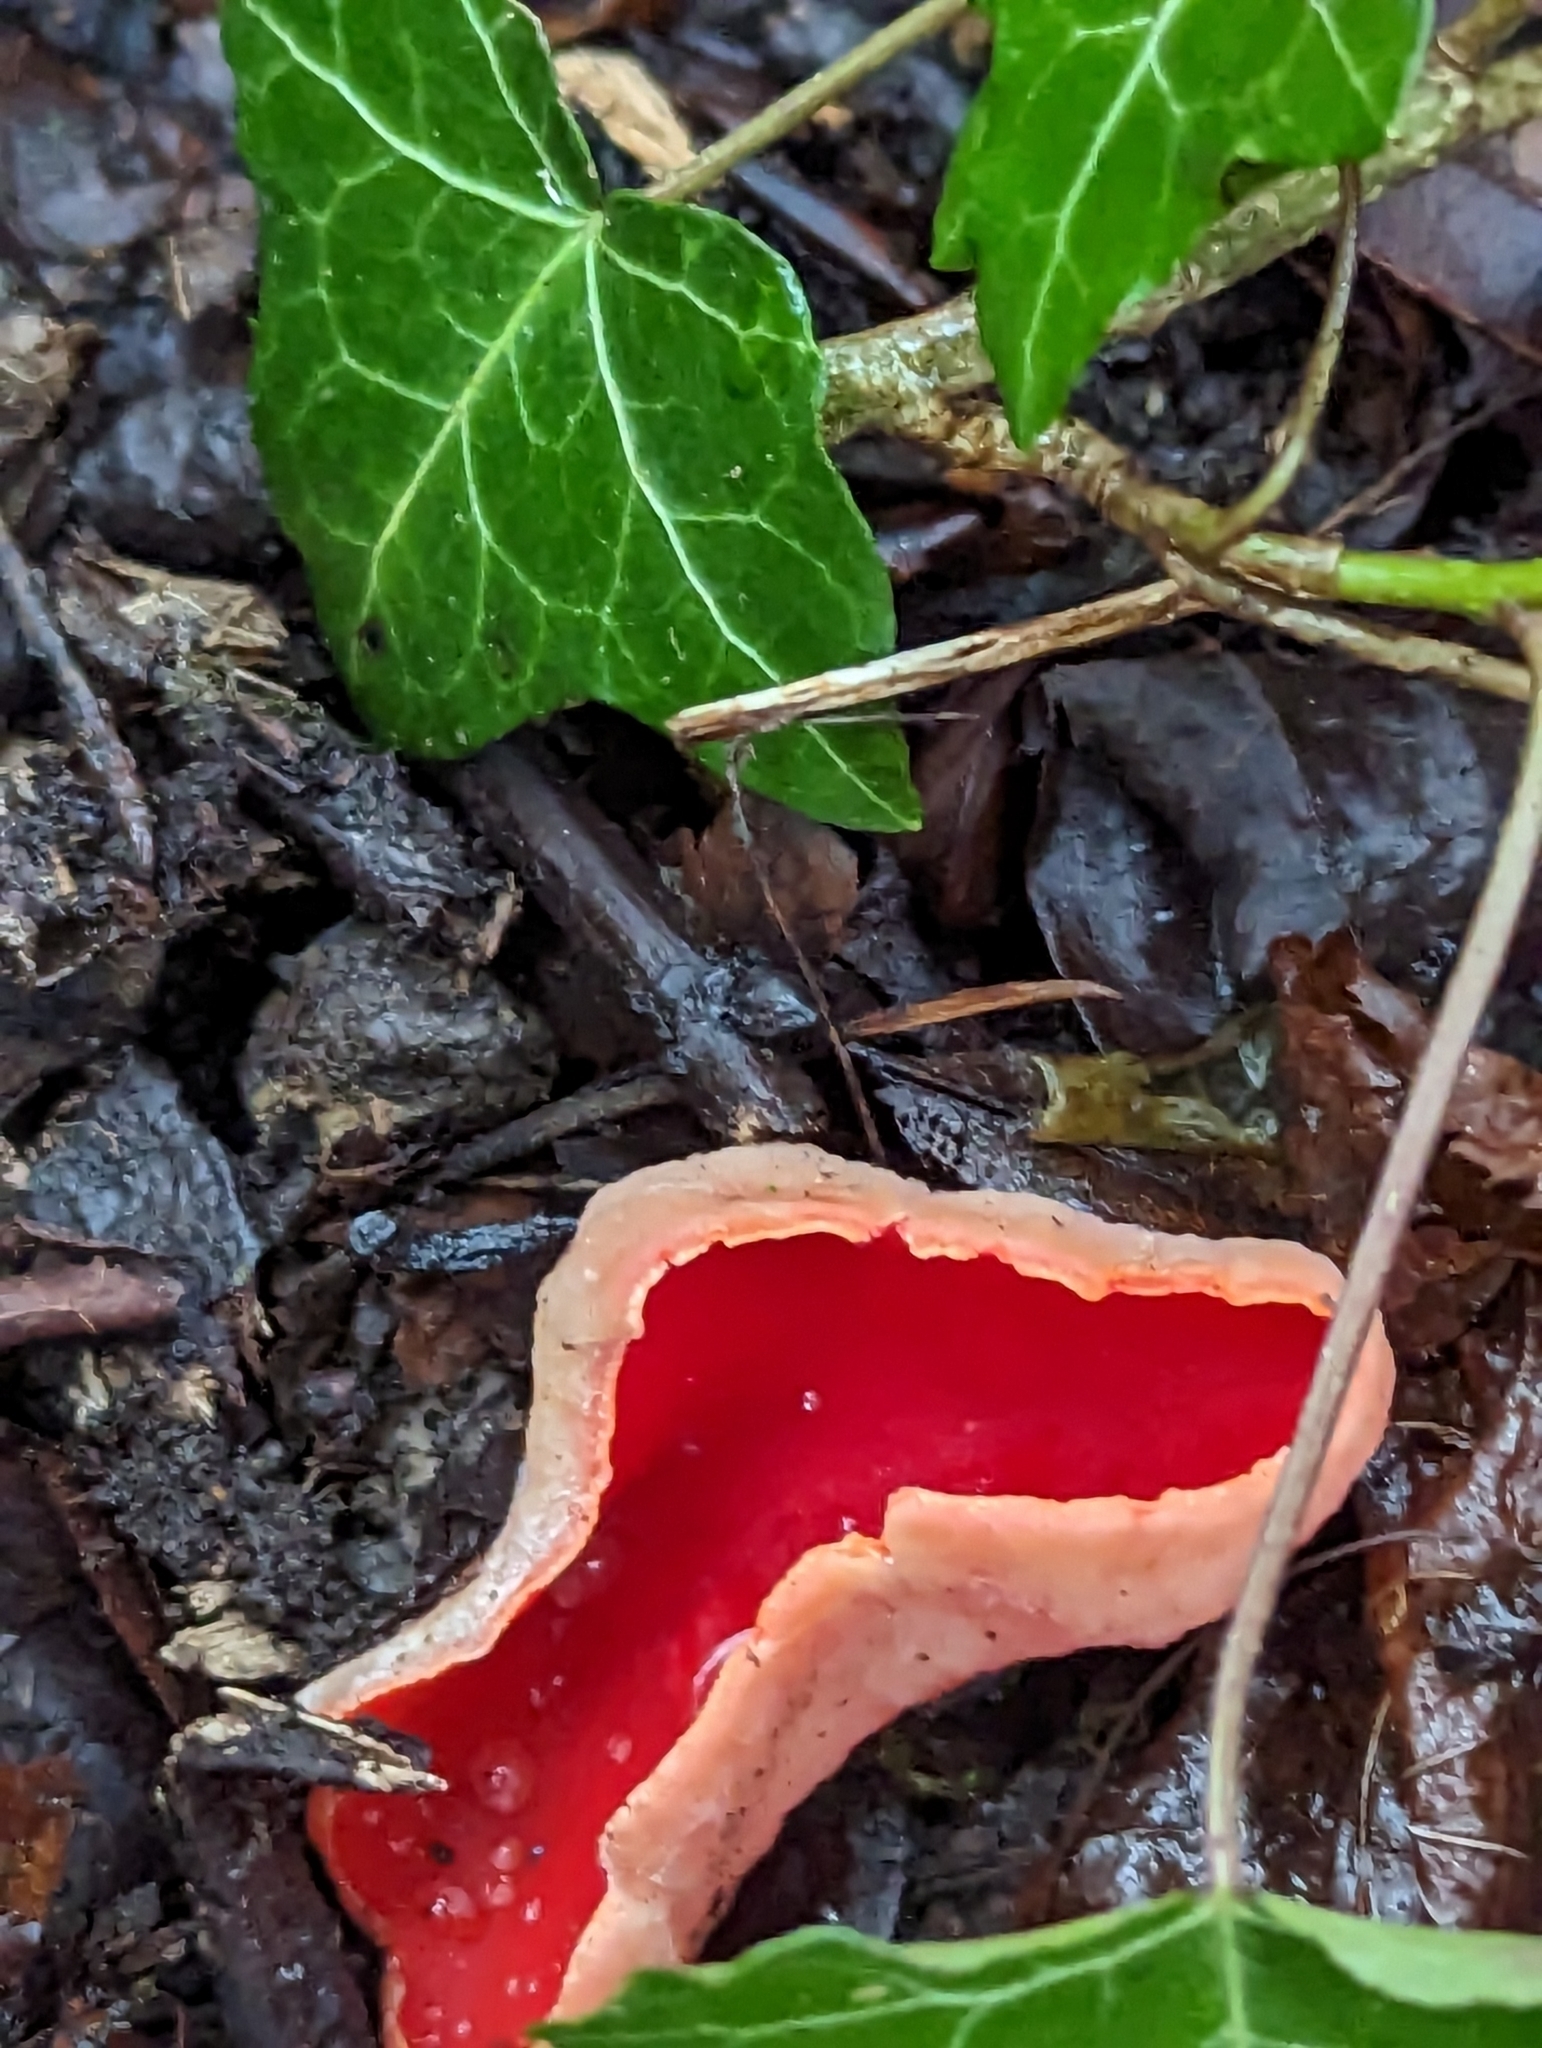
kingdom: Fungi
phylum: Ascomycota
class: Pezizomycetes
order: Pezizales
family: Sarcoscyphaceae
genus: Sarcoscypha
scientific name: Sarcoscypha
